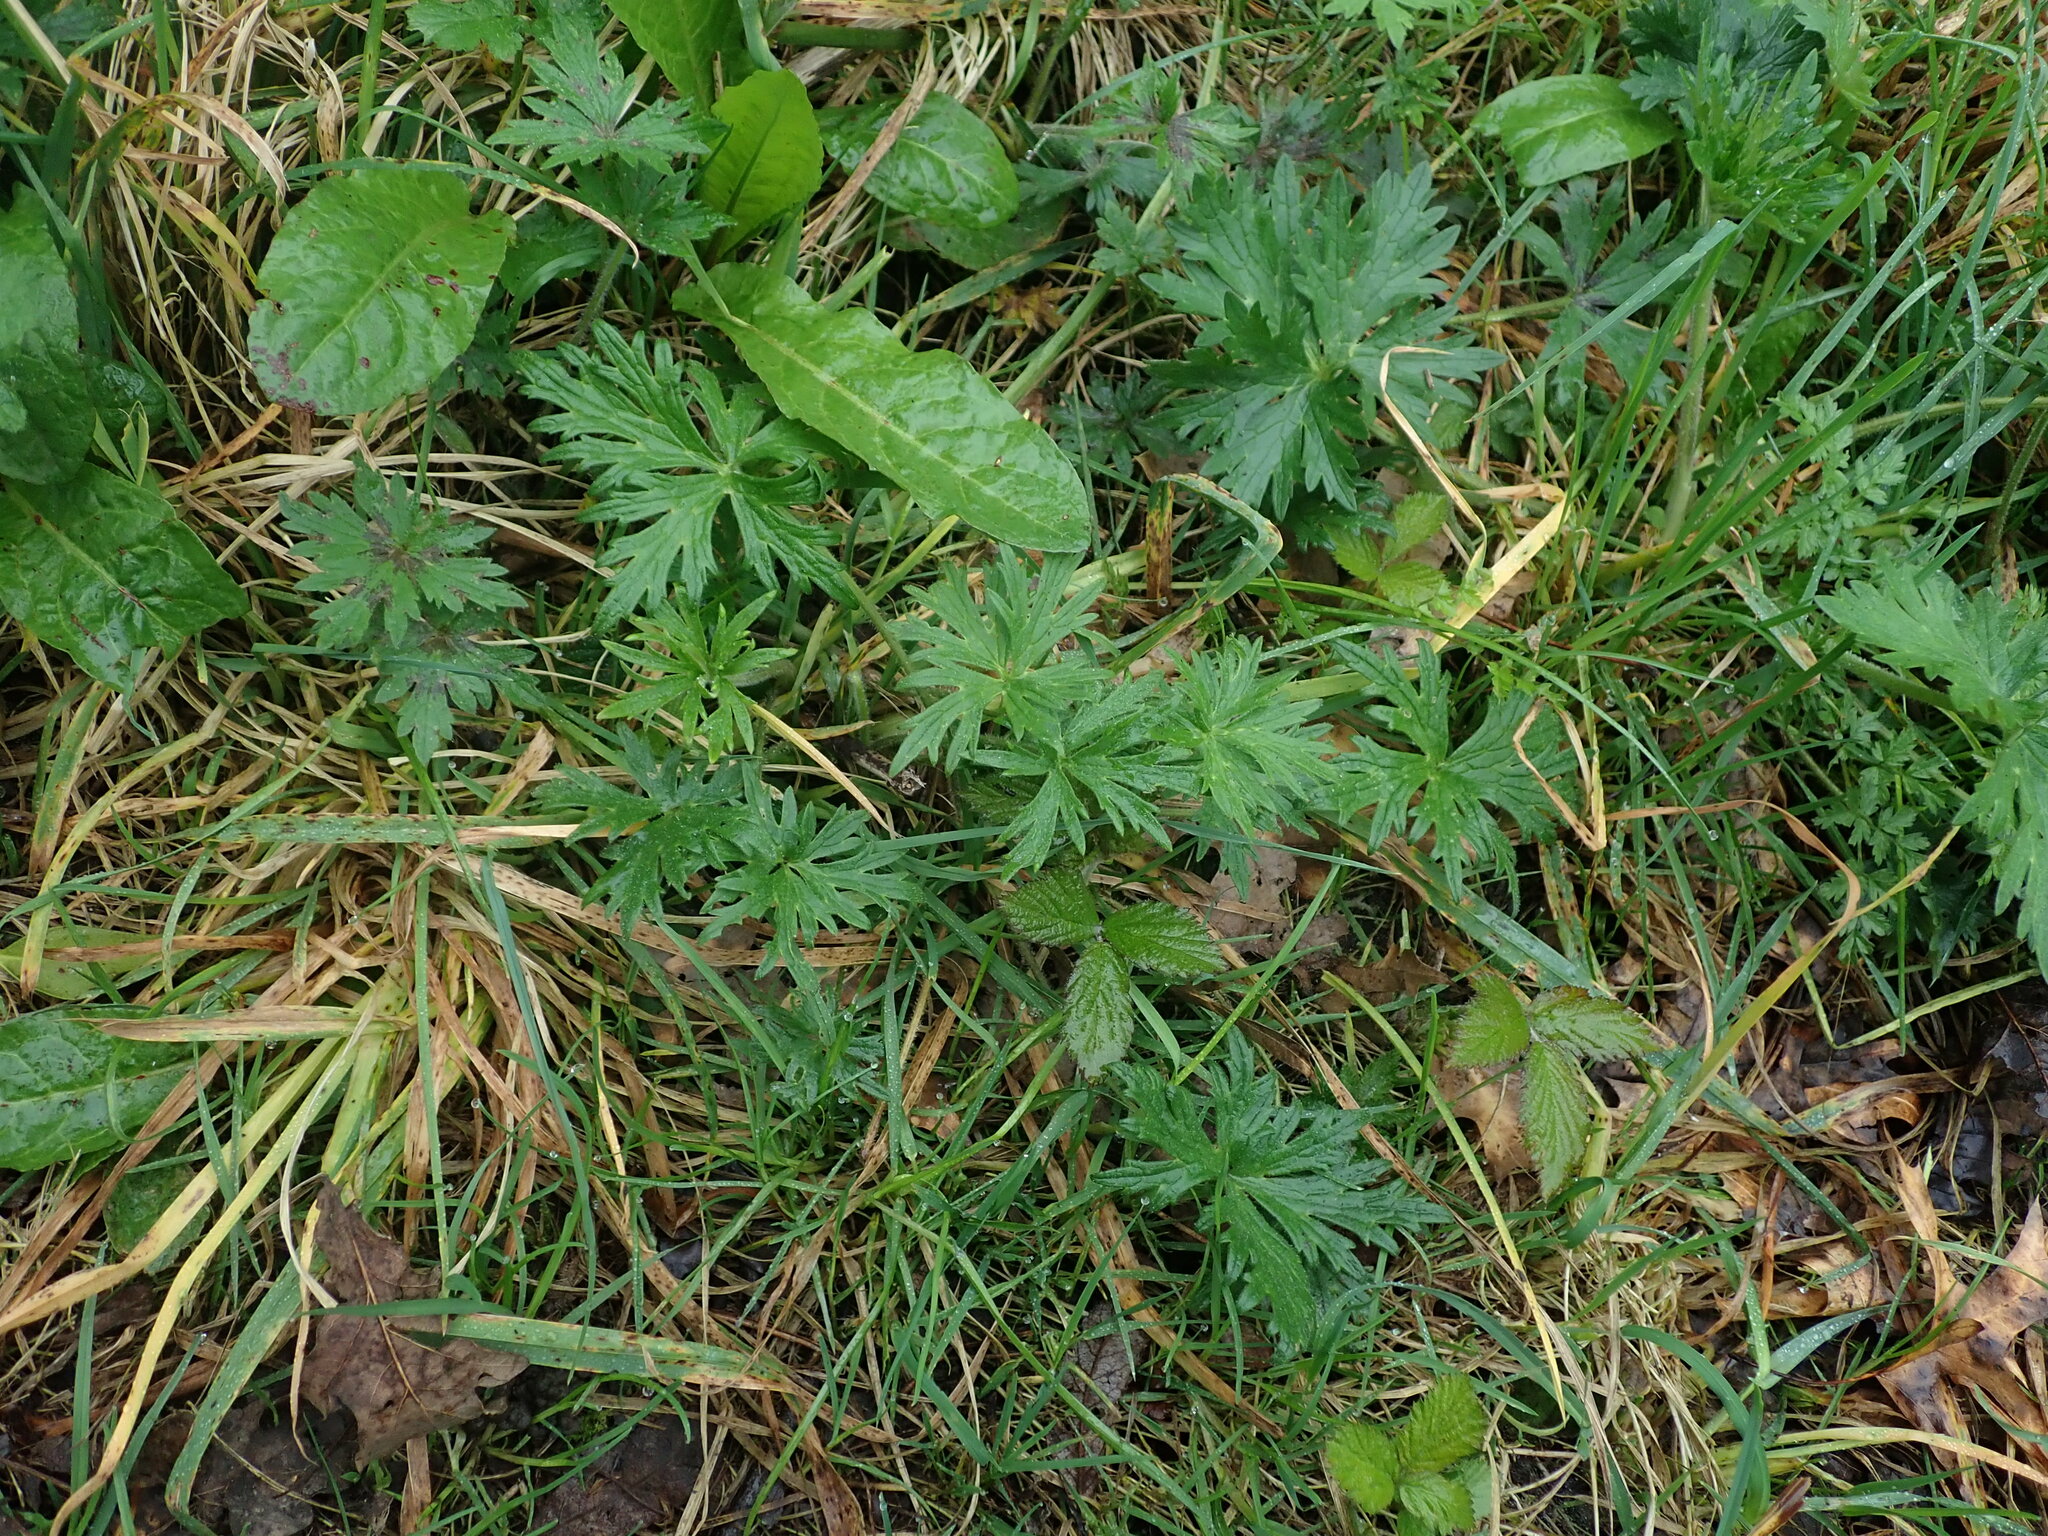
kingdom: Plantae
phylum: Tracheophyta
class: Magnoliopsida
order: Ranunculales
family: Ranunculaceae
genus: Ranunculus
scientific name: Ranunculus acris
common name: Meadow buttercup
